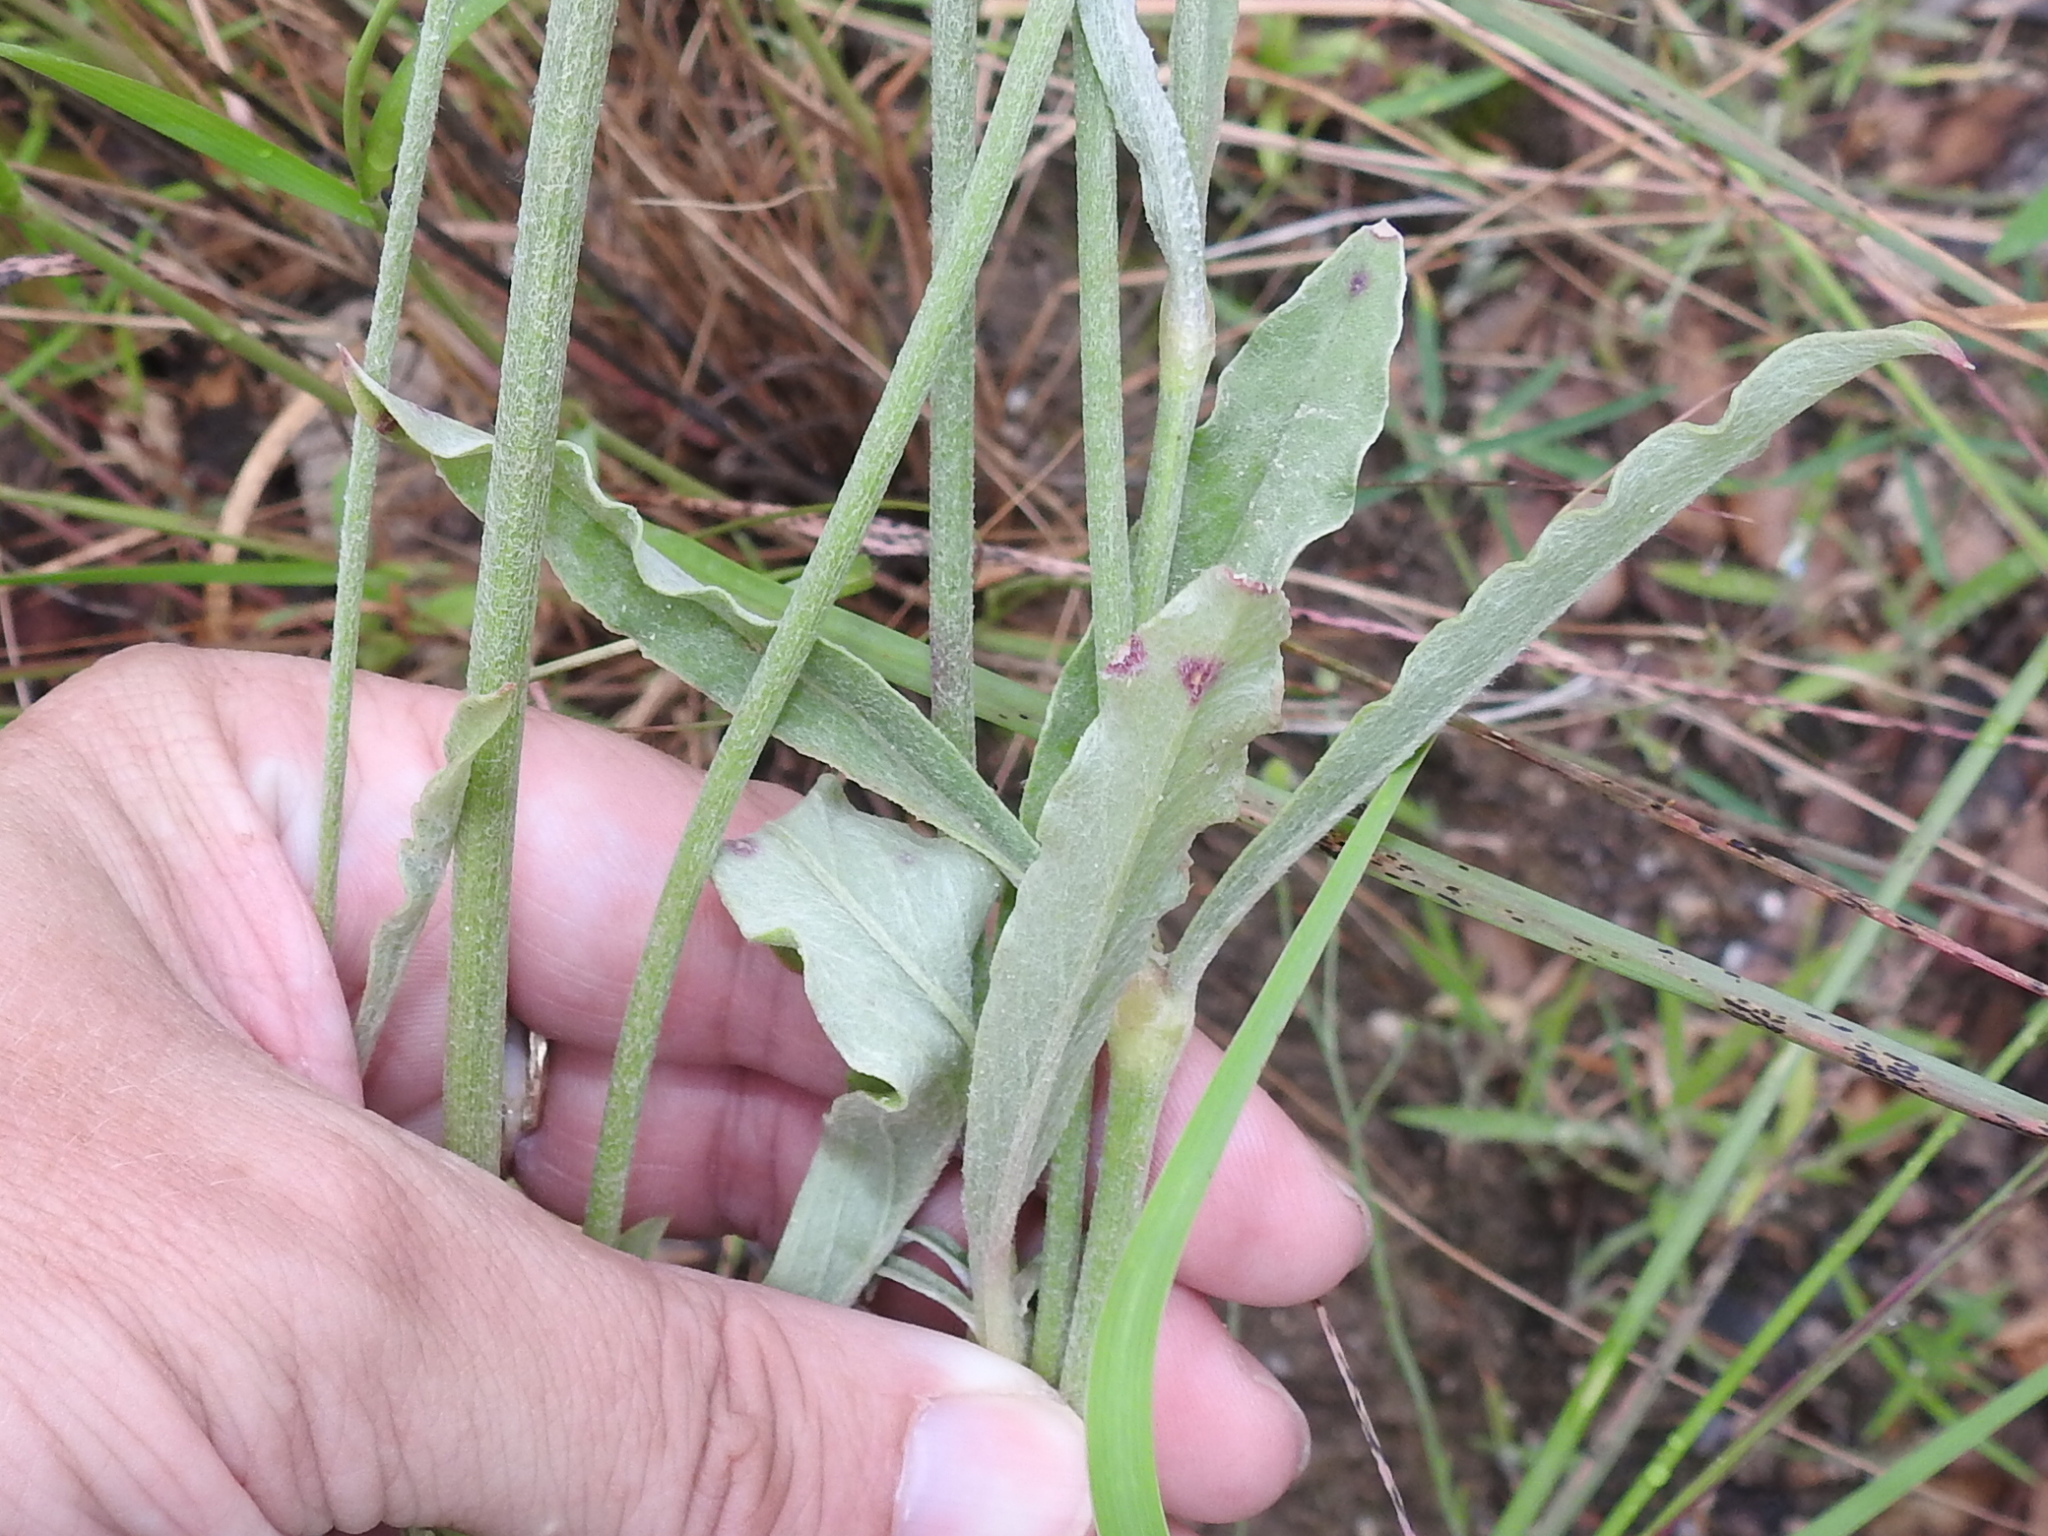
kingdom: Plantae
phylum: Tracheophyta
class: Magnoliopsida
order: Caryophyllales
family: Amaranthaceae
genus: Froelichia
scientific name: Froelichia arizonica
